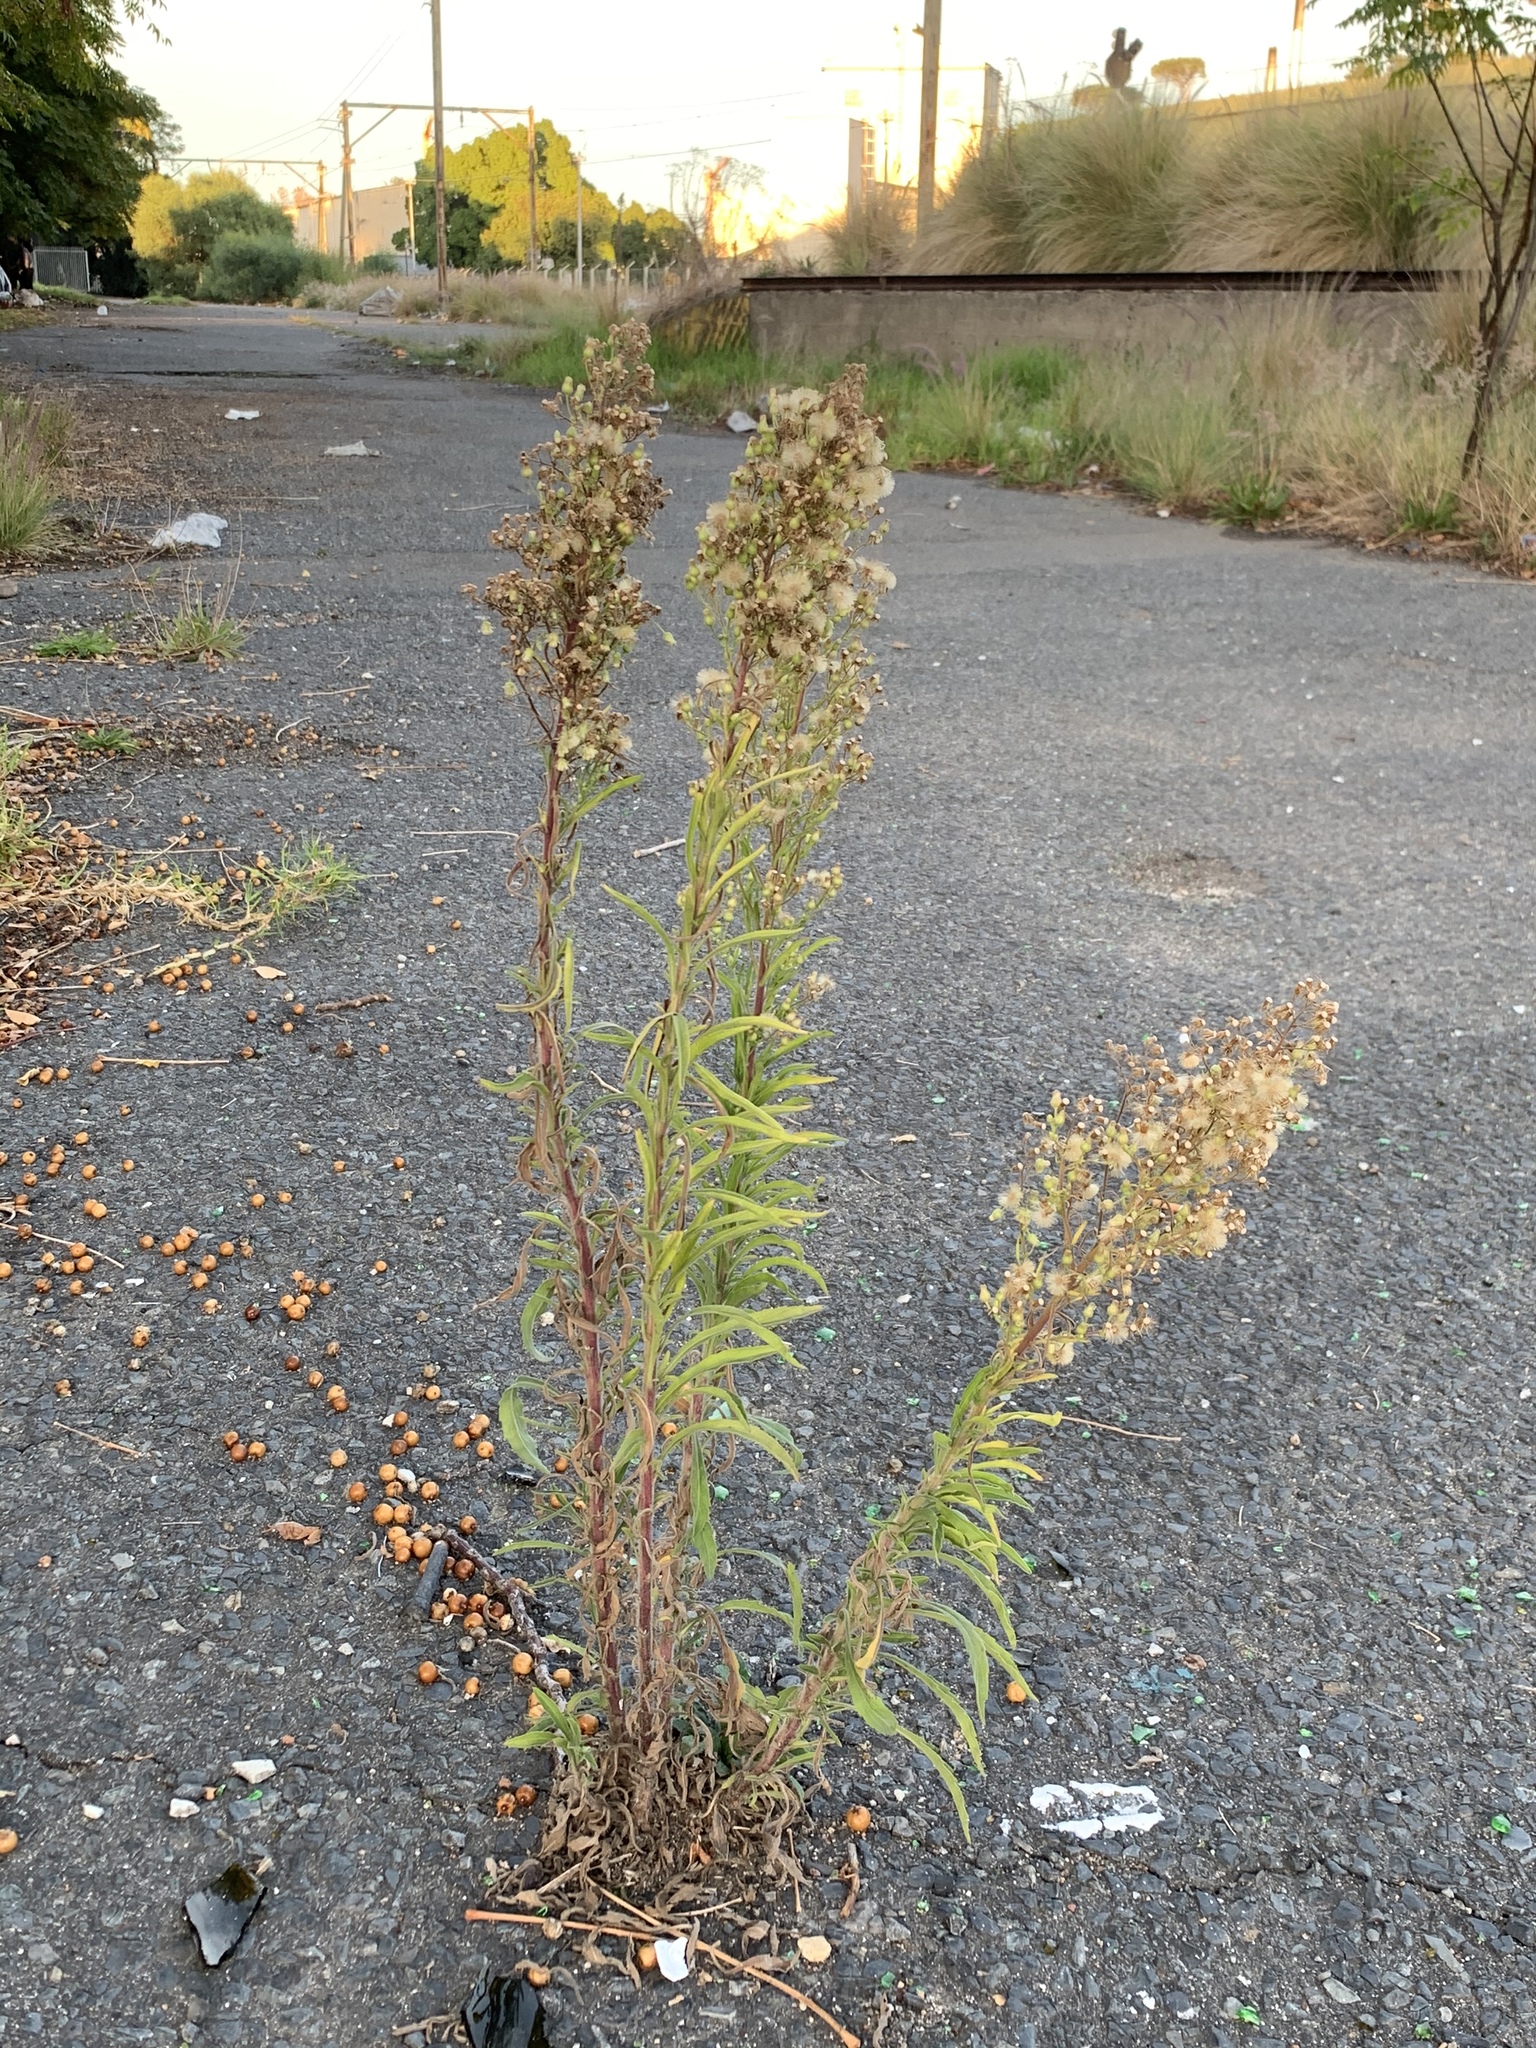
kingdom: Plantae
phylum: Tracheophyta
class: Magnoliopsida
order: Asterales
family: Asteraceae
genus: Erigeron
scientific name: Erigeron sumatrensis
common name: Daisy
